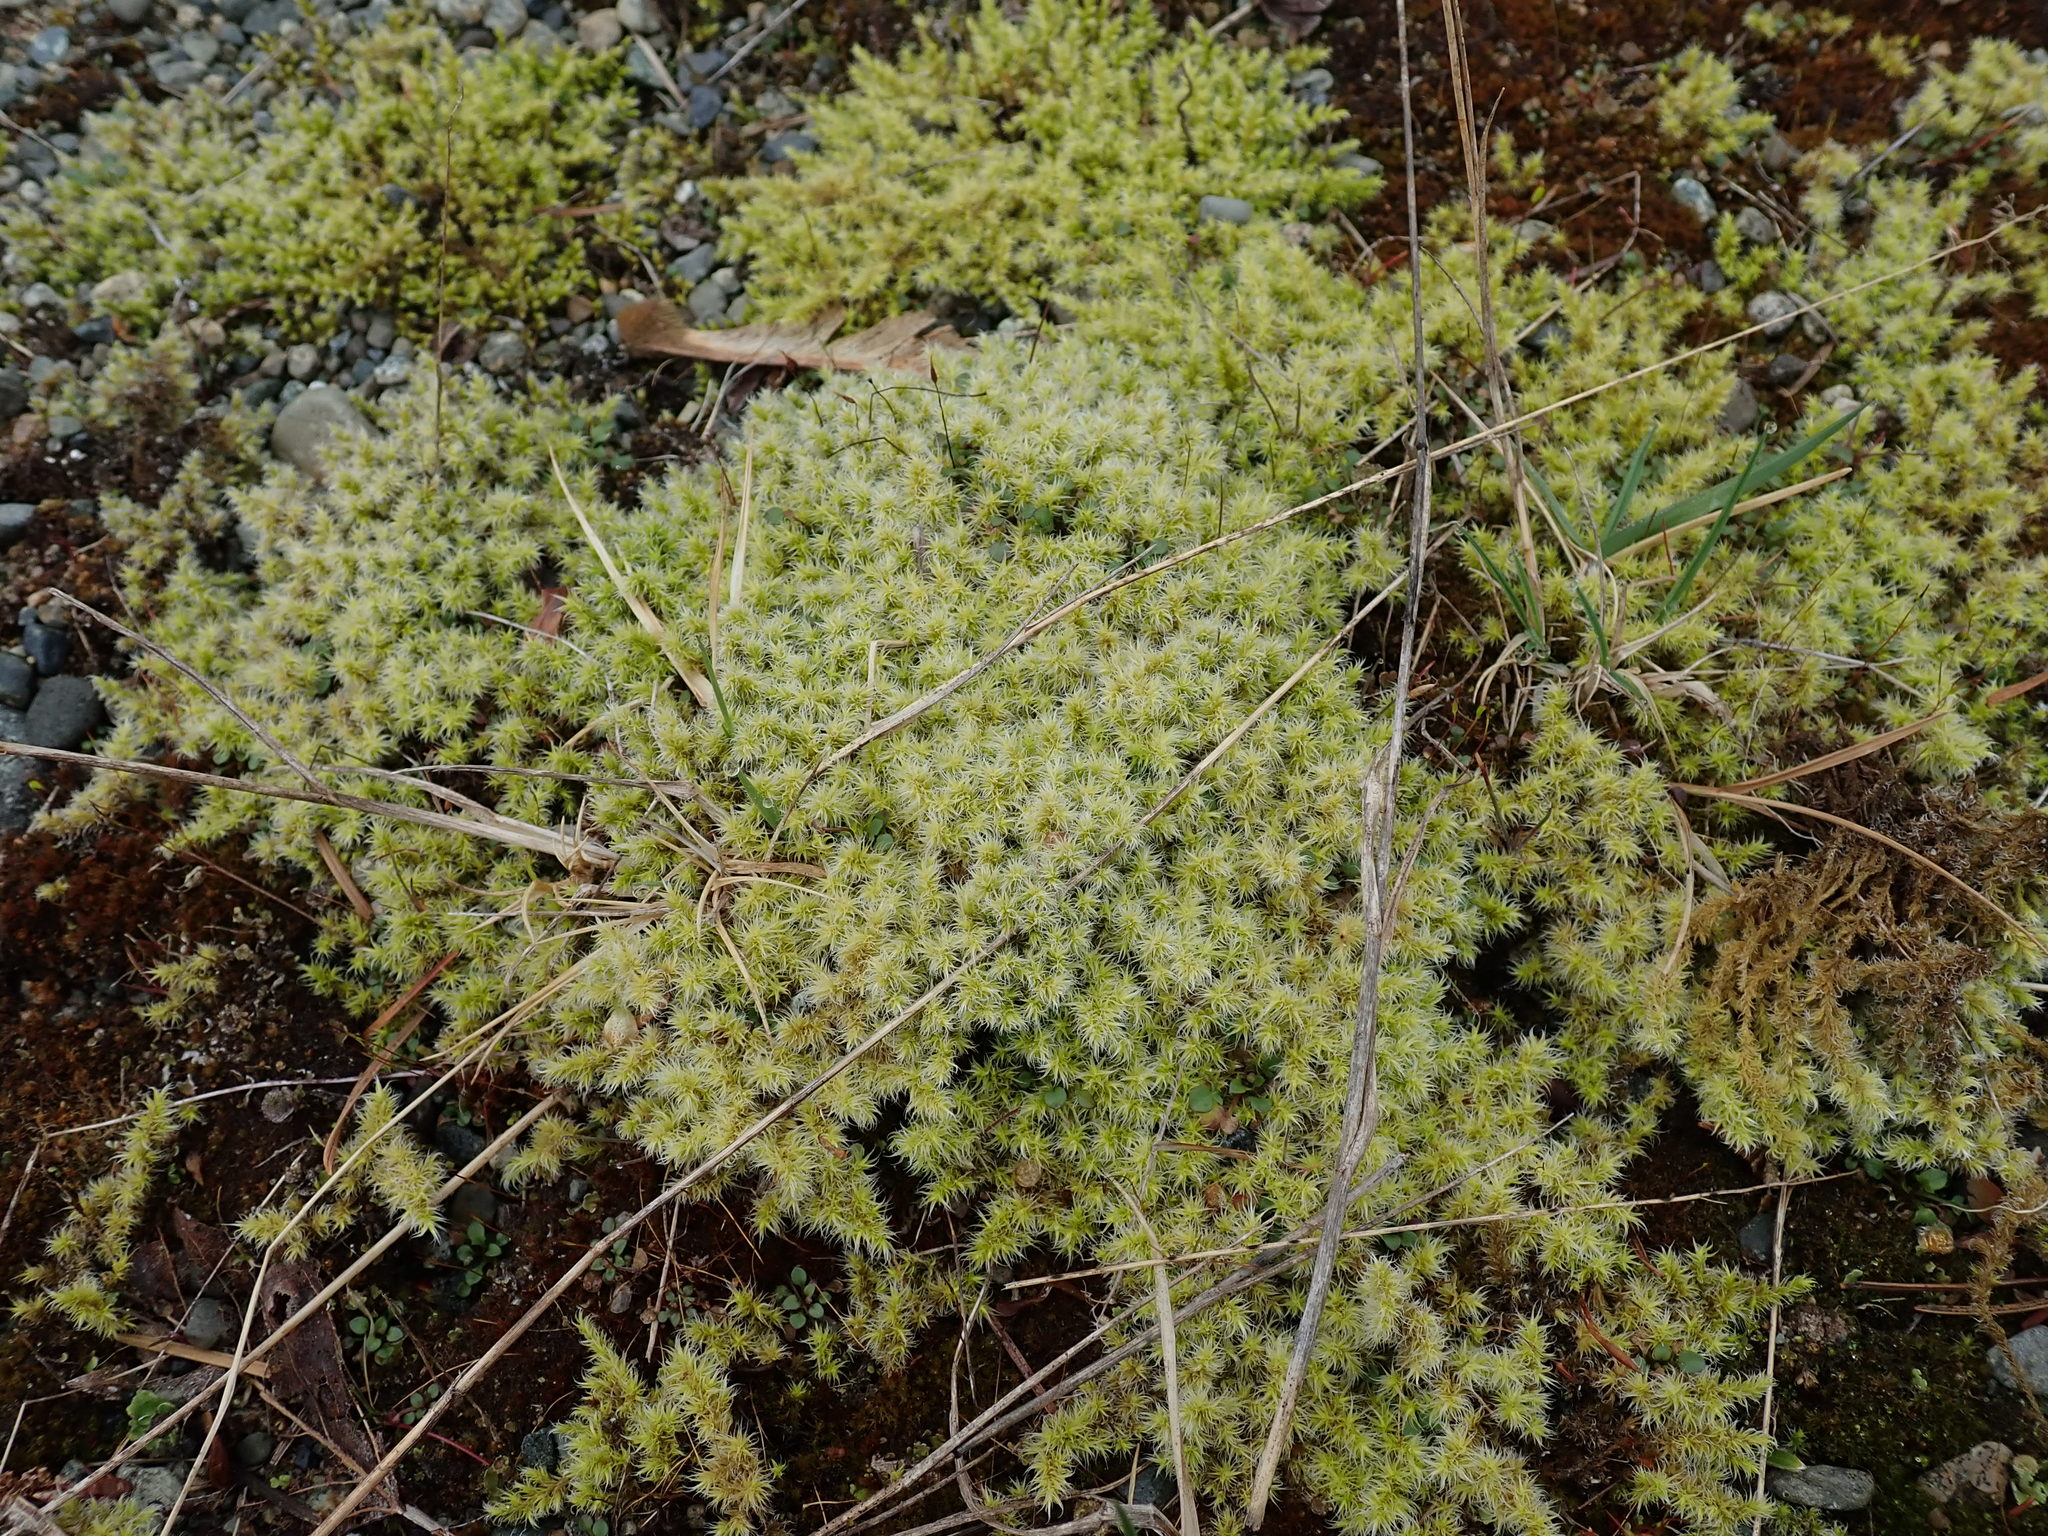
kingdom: Plantae
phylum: Bryophyta
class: Bryopsida
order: Grimmiales
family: Grimmiaceae
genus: Niphotrichum
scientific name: Niphotrichum canescens
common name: Hoary fringe-moss
